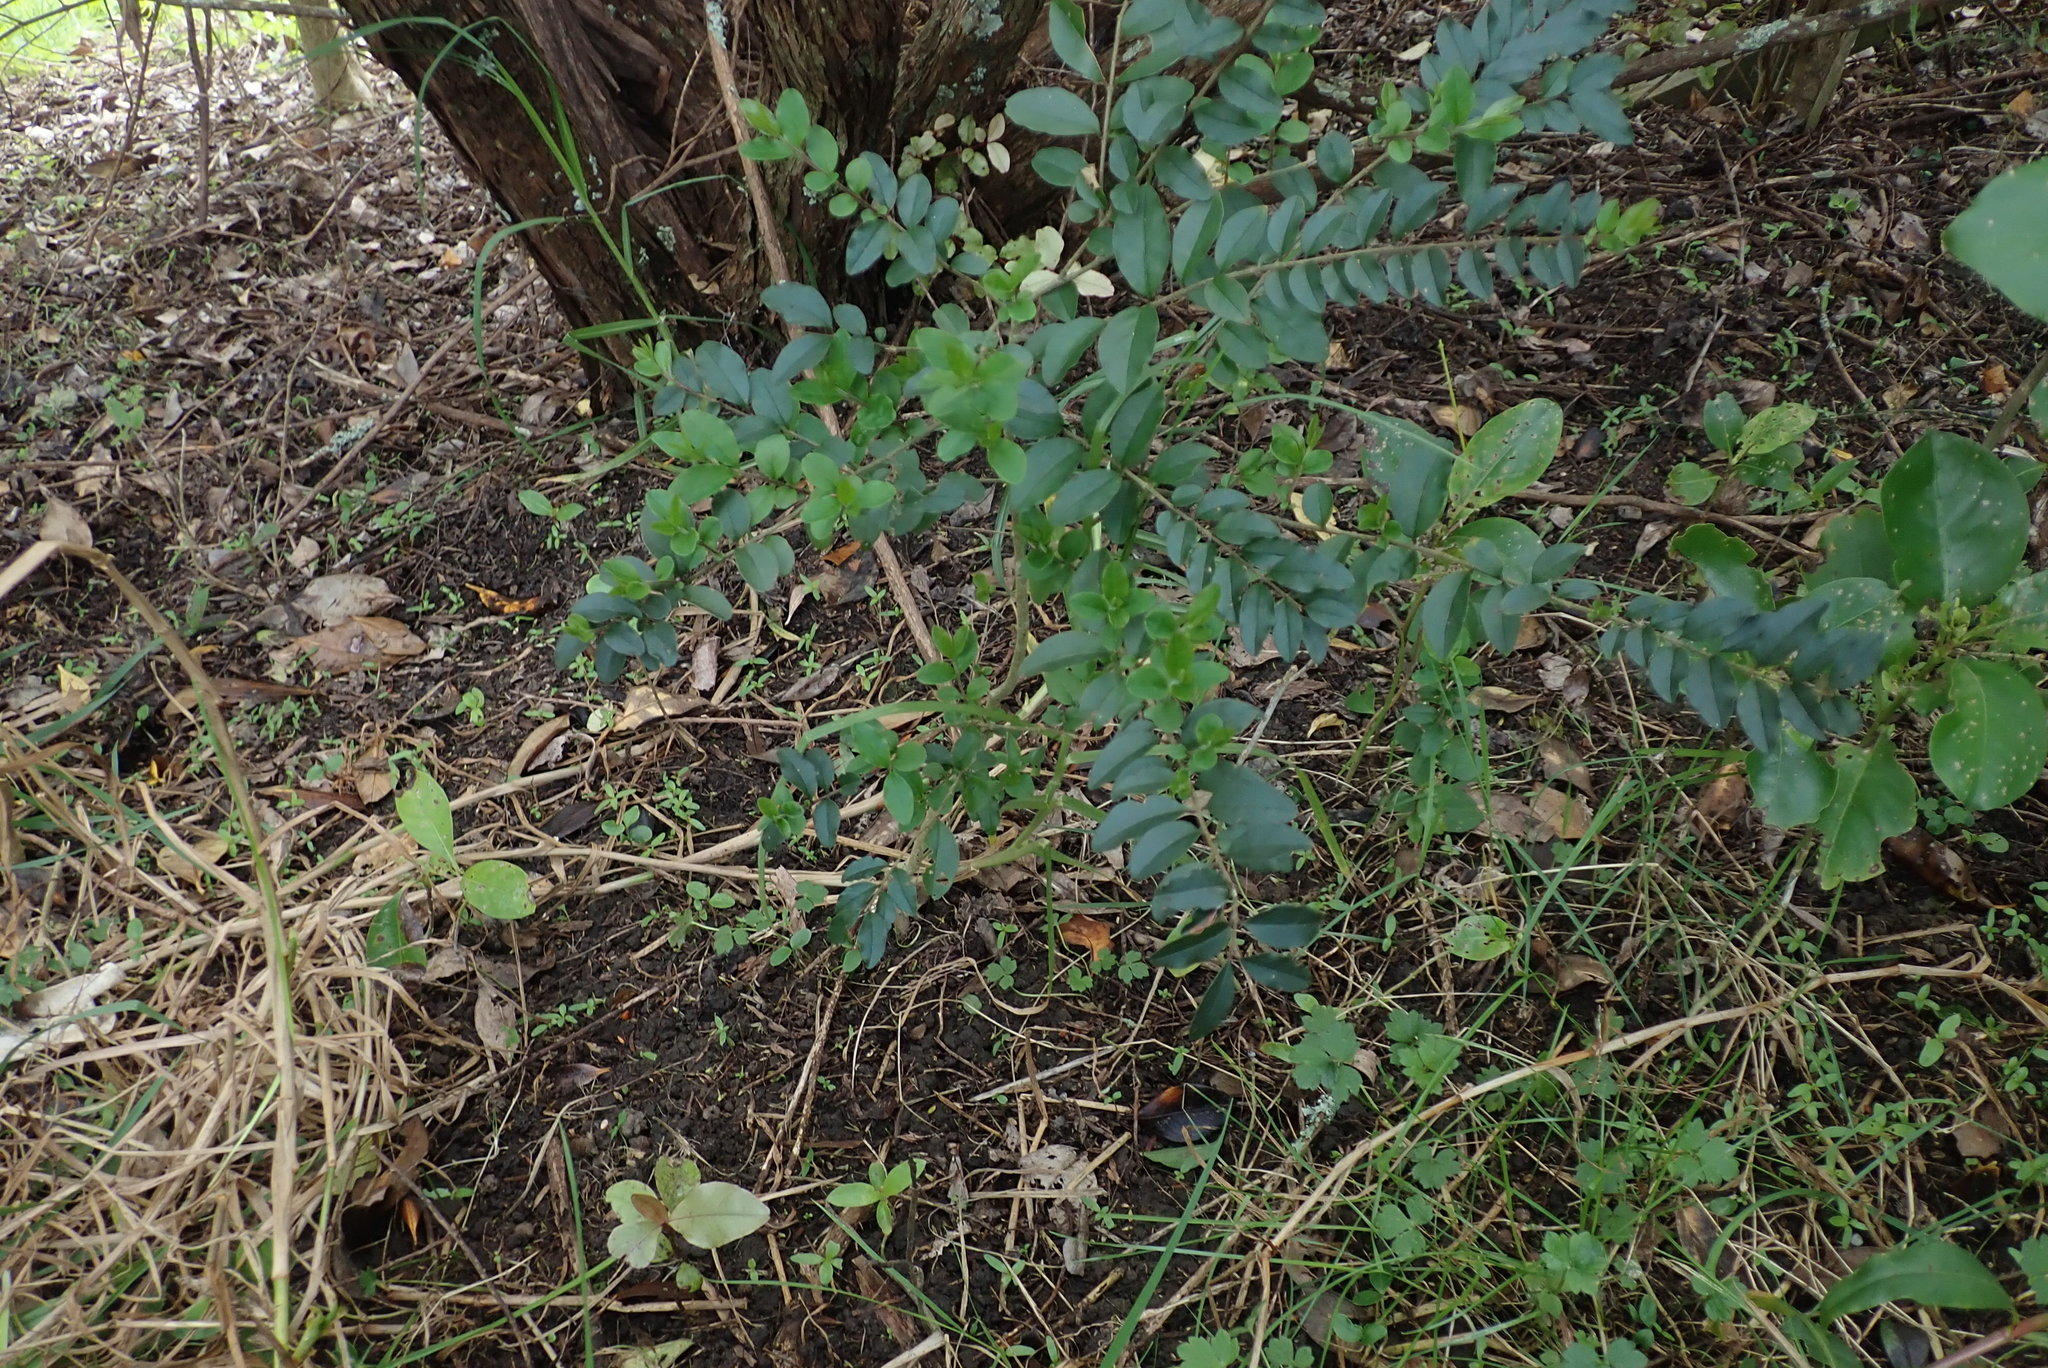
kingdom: Plantae
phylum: Tracheophyta
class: Magnoliopsida
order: Lamiales
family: Oleaceae
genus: Ligustrum
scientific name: Ligustrum sinense
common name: Chinese privet
